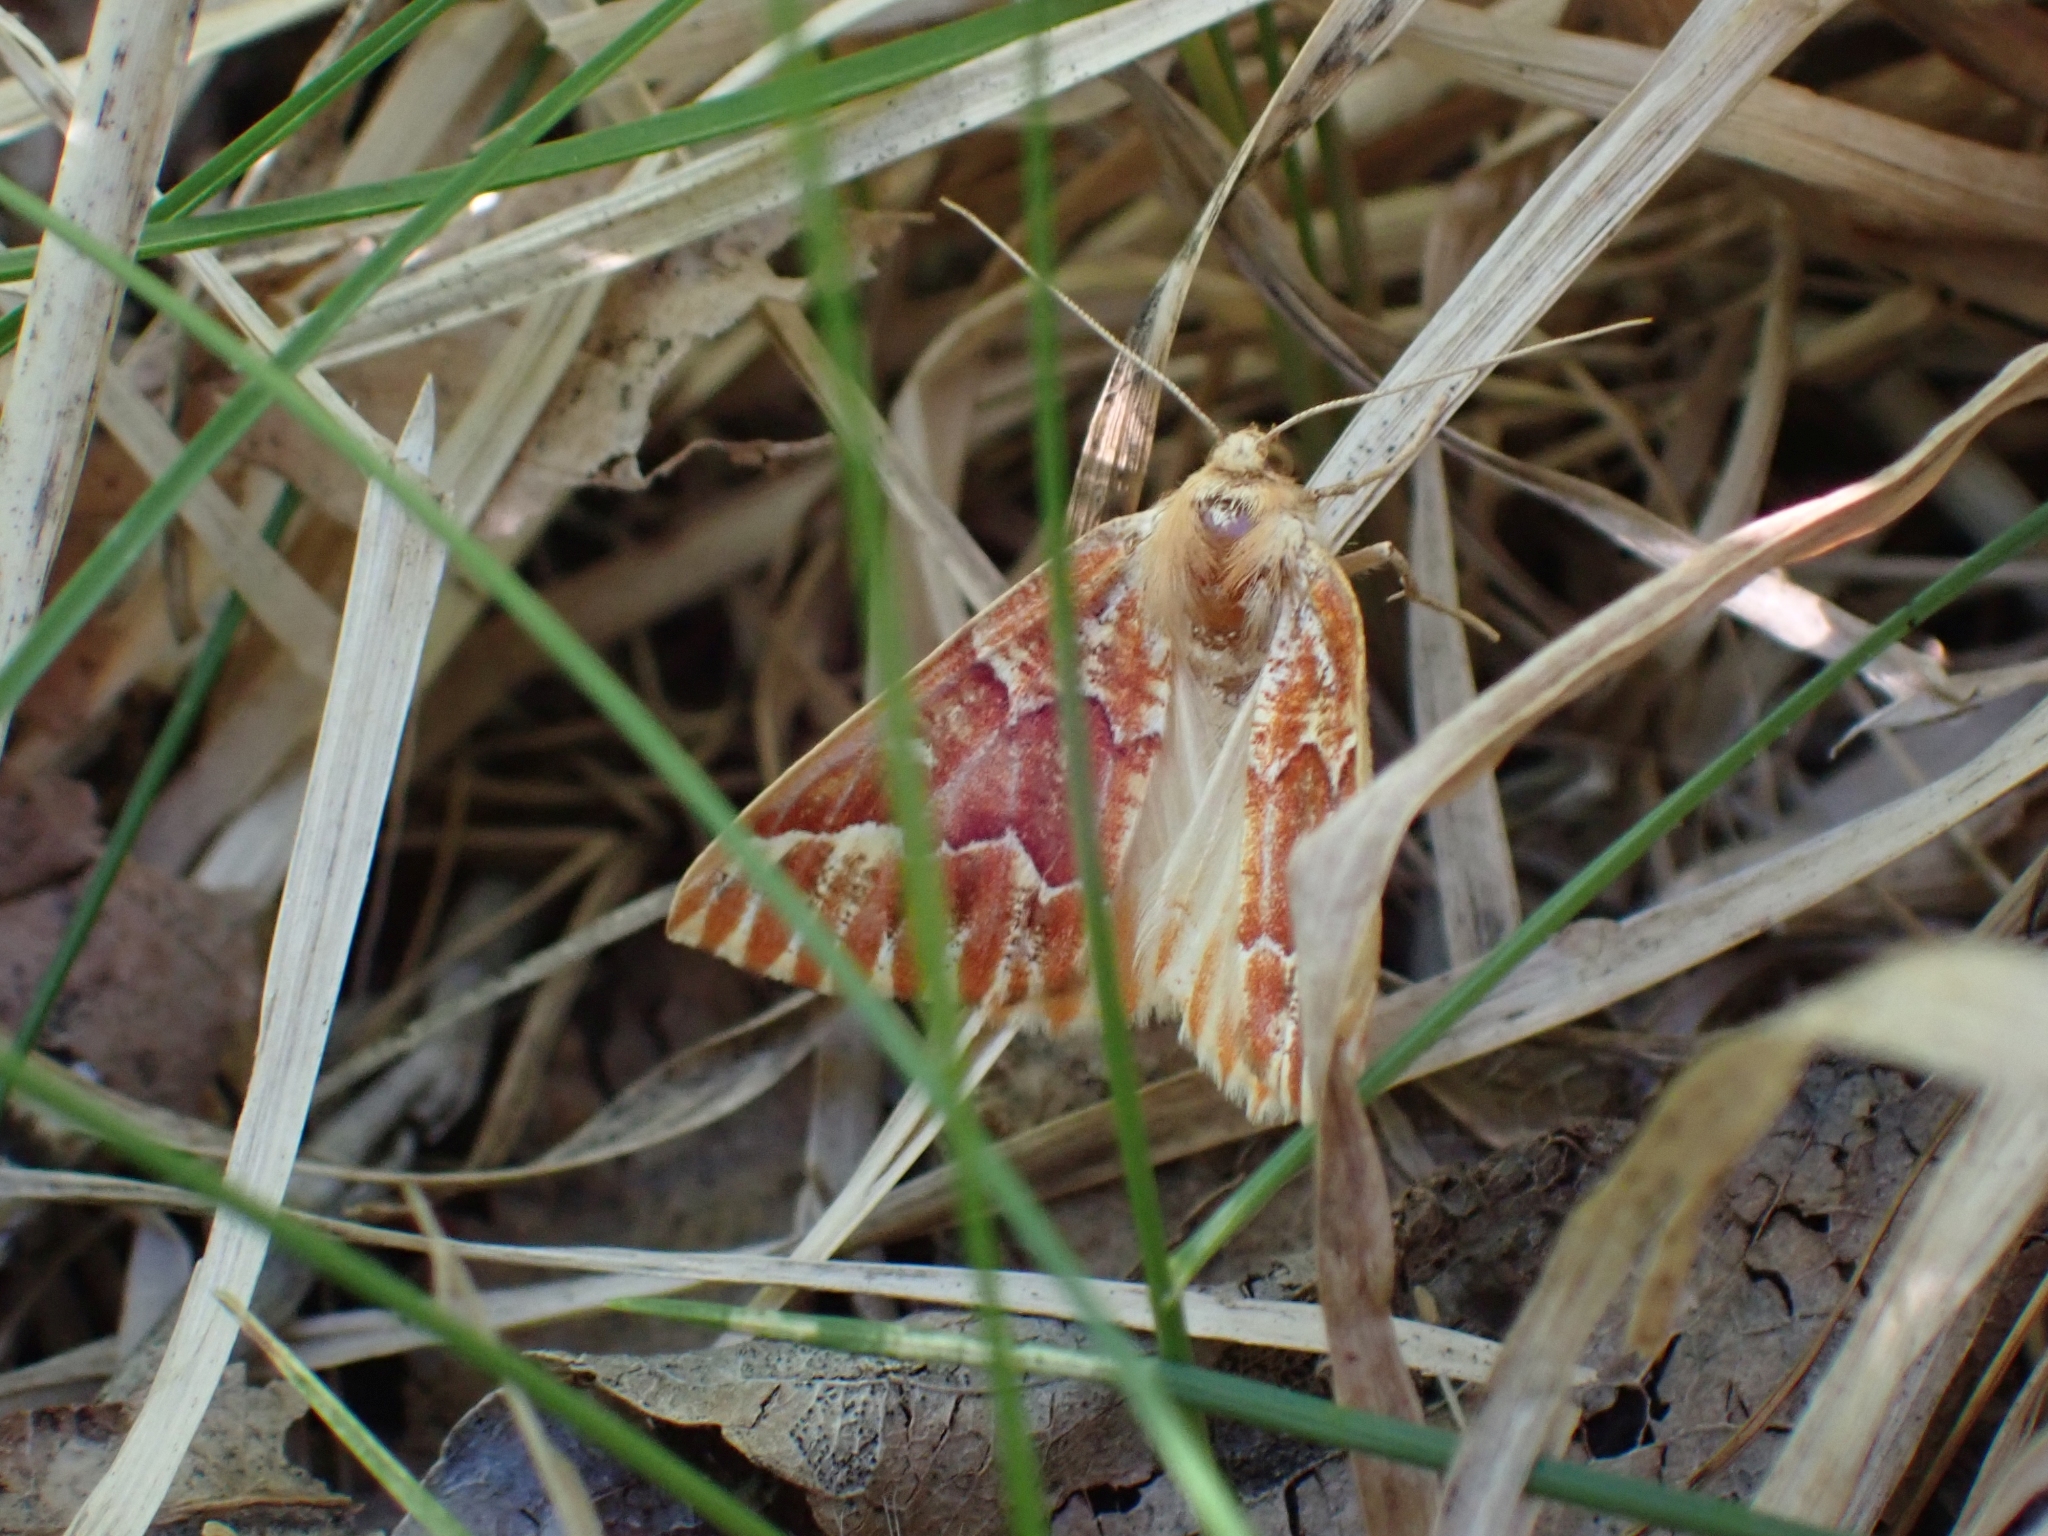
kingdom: Animalia
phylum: Arthropoda
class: Insecta
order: Lepidoptera
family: Geometridae
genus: Caripeta
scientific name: Caripeta aequaliaria
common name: Red girdle moth
